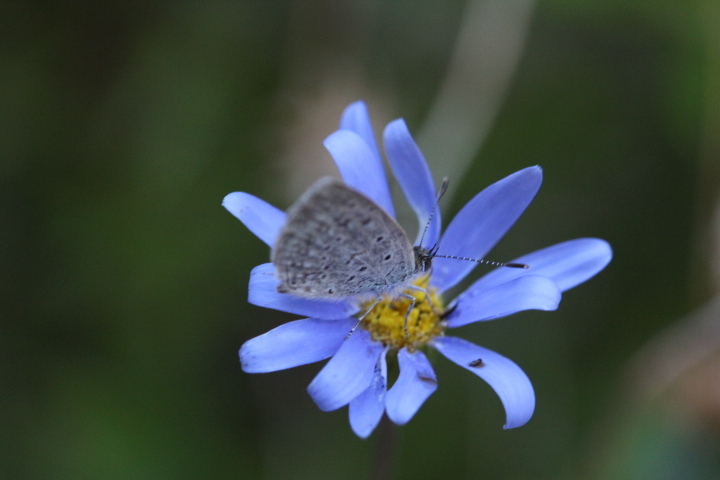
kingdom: Animalia
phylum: Arthropoda
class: Insecta
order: Lepidoptera
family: Lycaenidae
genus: Zizeeria
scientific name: Zizeeria knysna
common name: African grass blue
